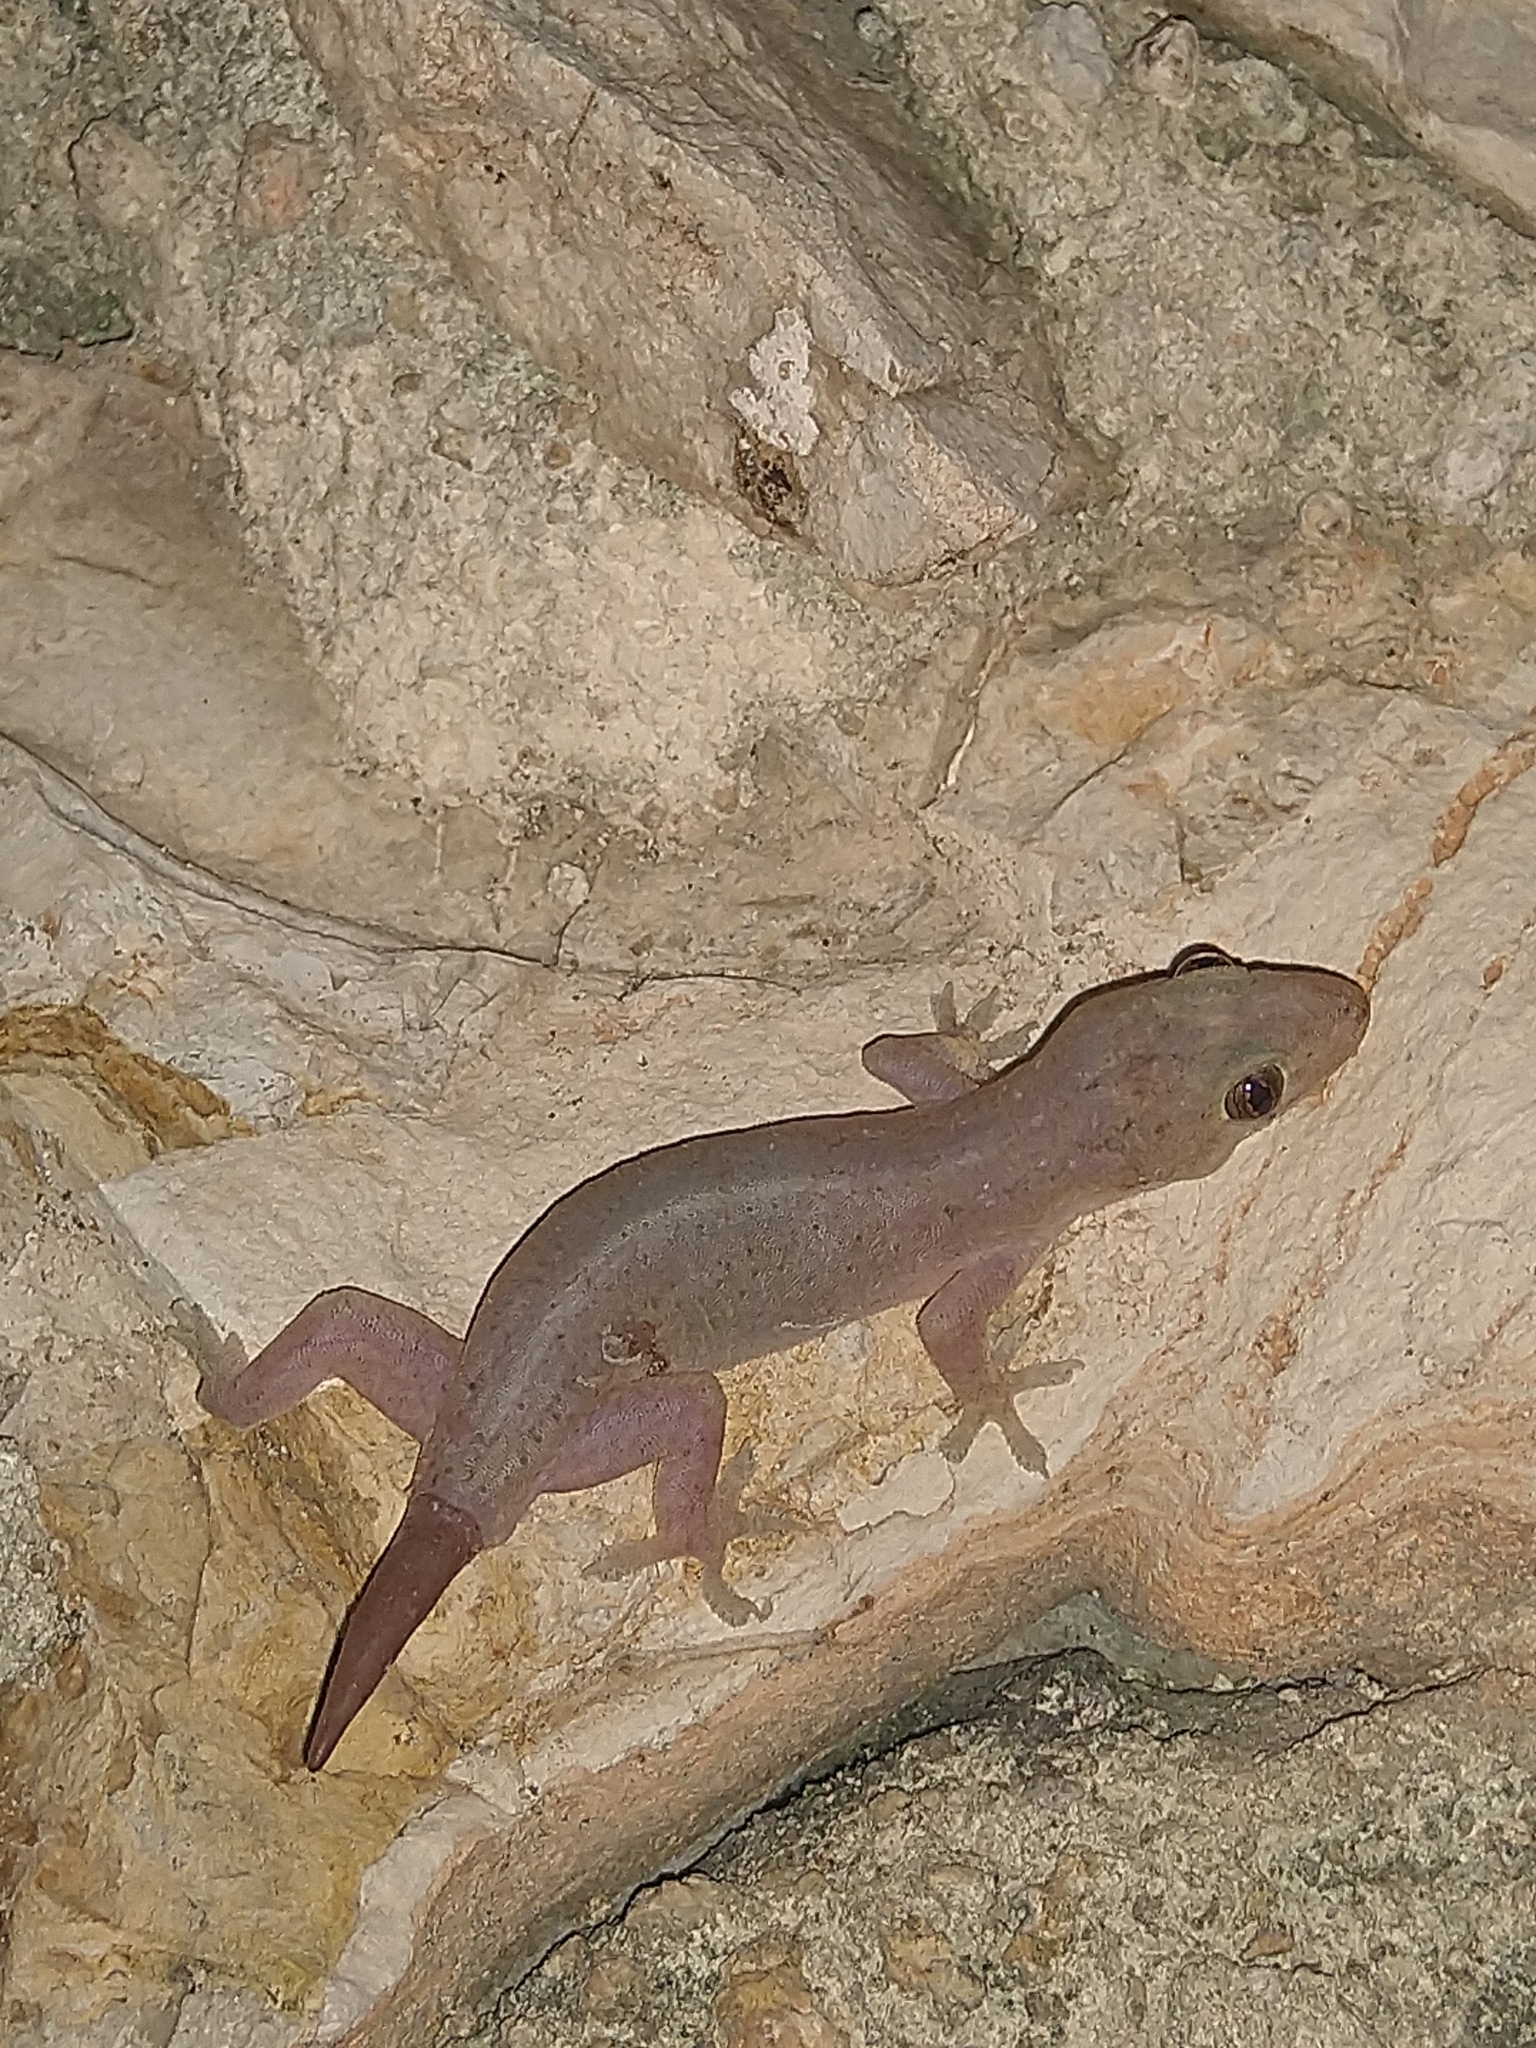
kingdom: Animalia
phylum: Chordata
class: Squamata
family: Gekkonidae
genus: Hemidactylus
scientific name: Hemidactylus frenatus
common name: Common house gecko
